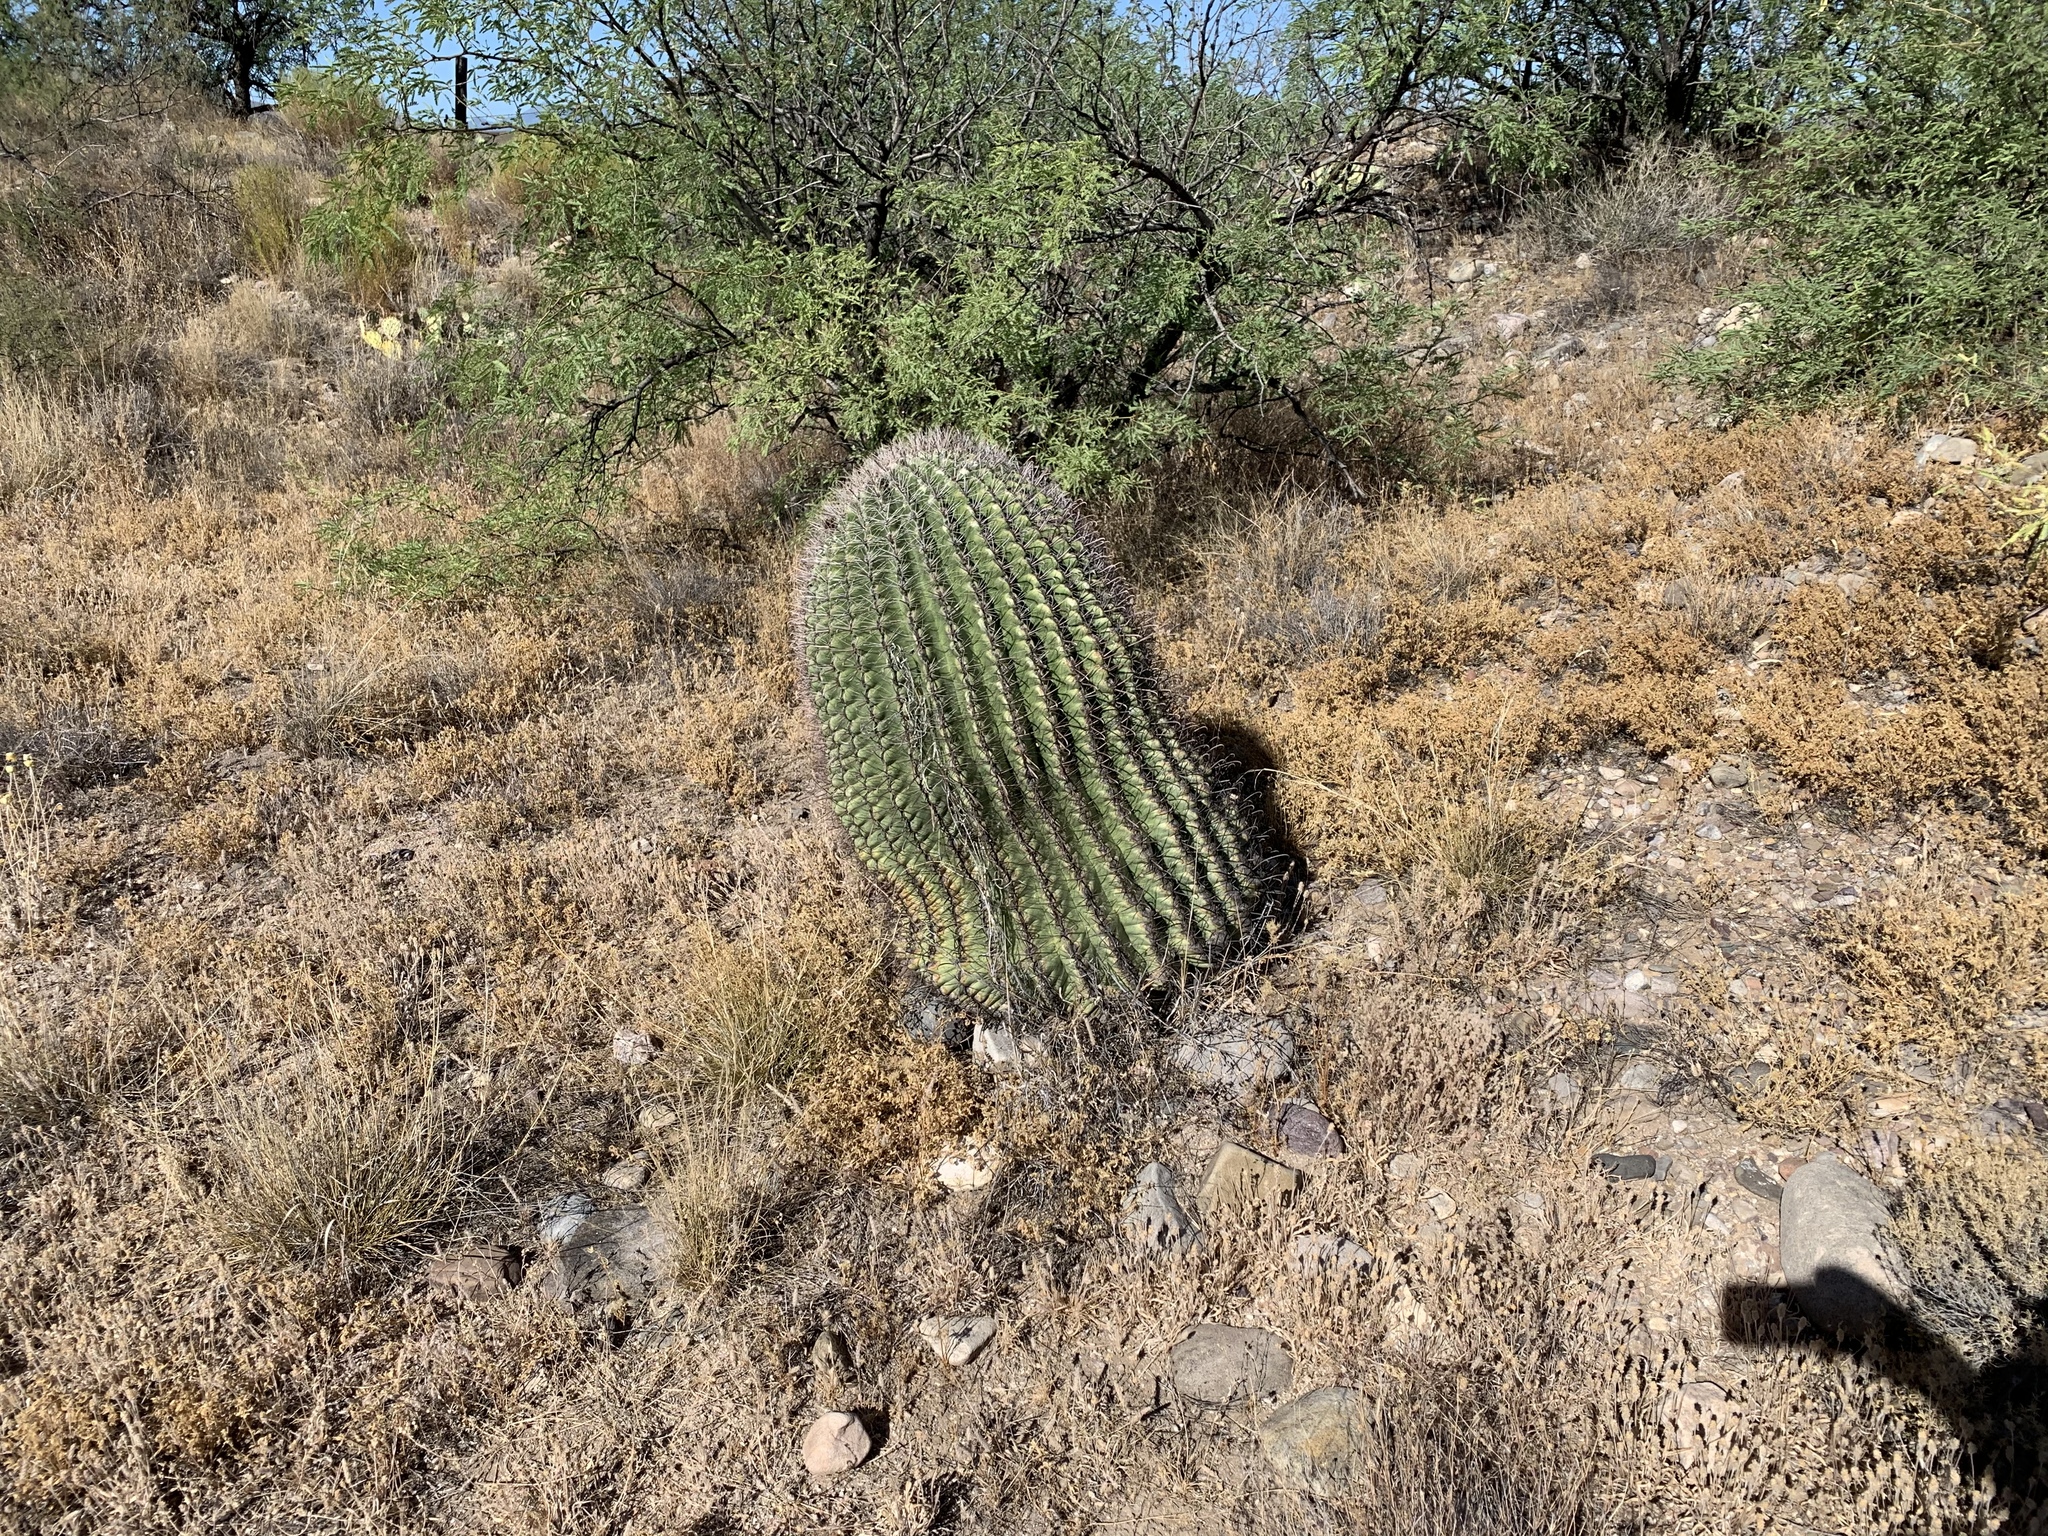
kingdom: Plantae
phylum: Tracheophyta
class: Magnoliopsida
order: Caryophyllales
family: Cactaceae
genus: Ferocactus
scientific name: Ferocactus wislizeni
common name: Candy barrel cactus
